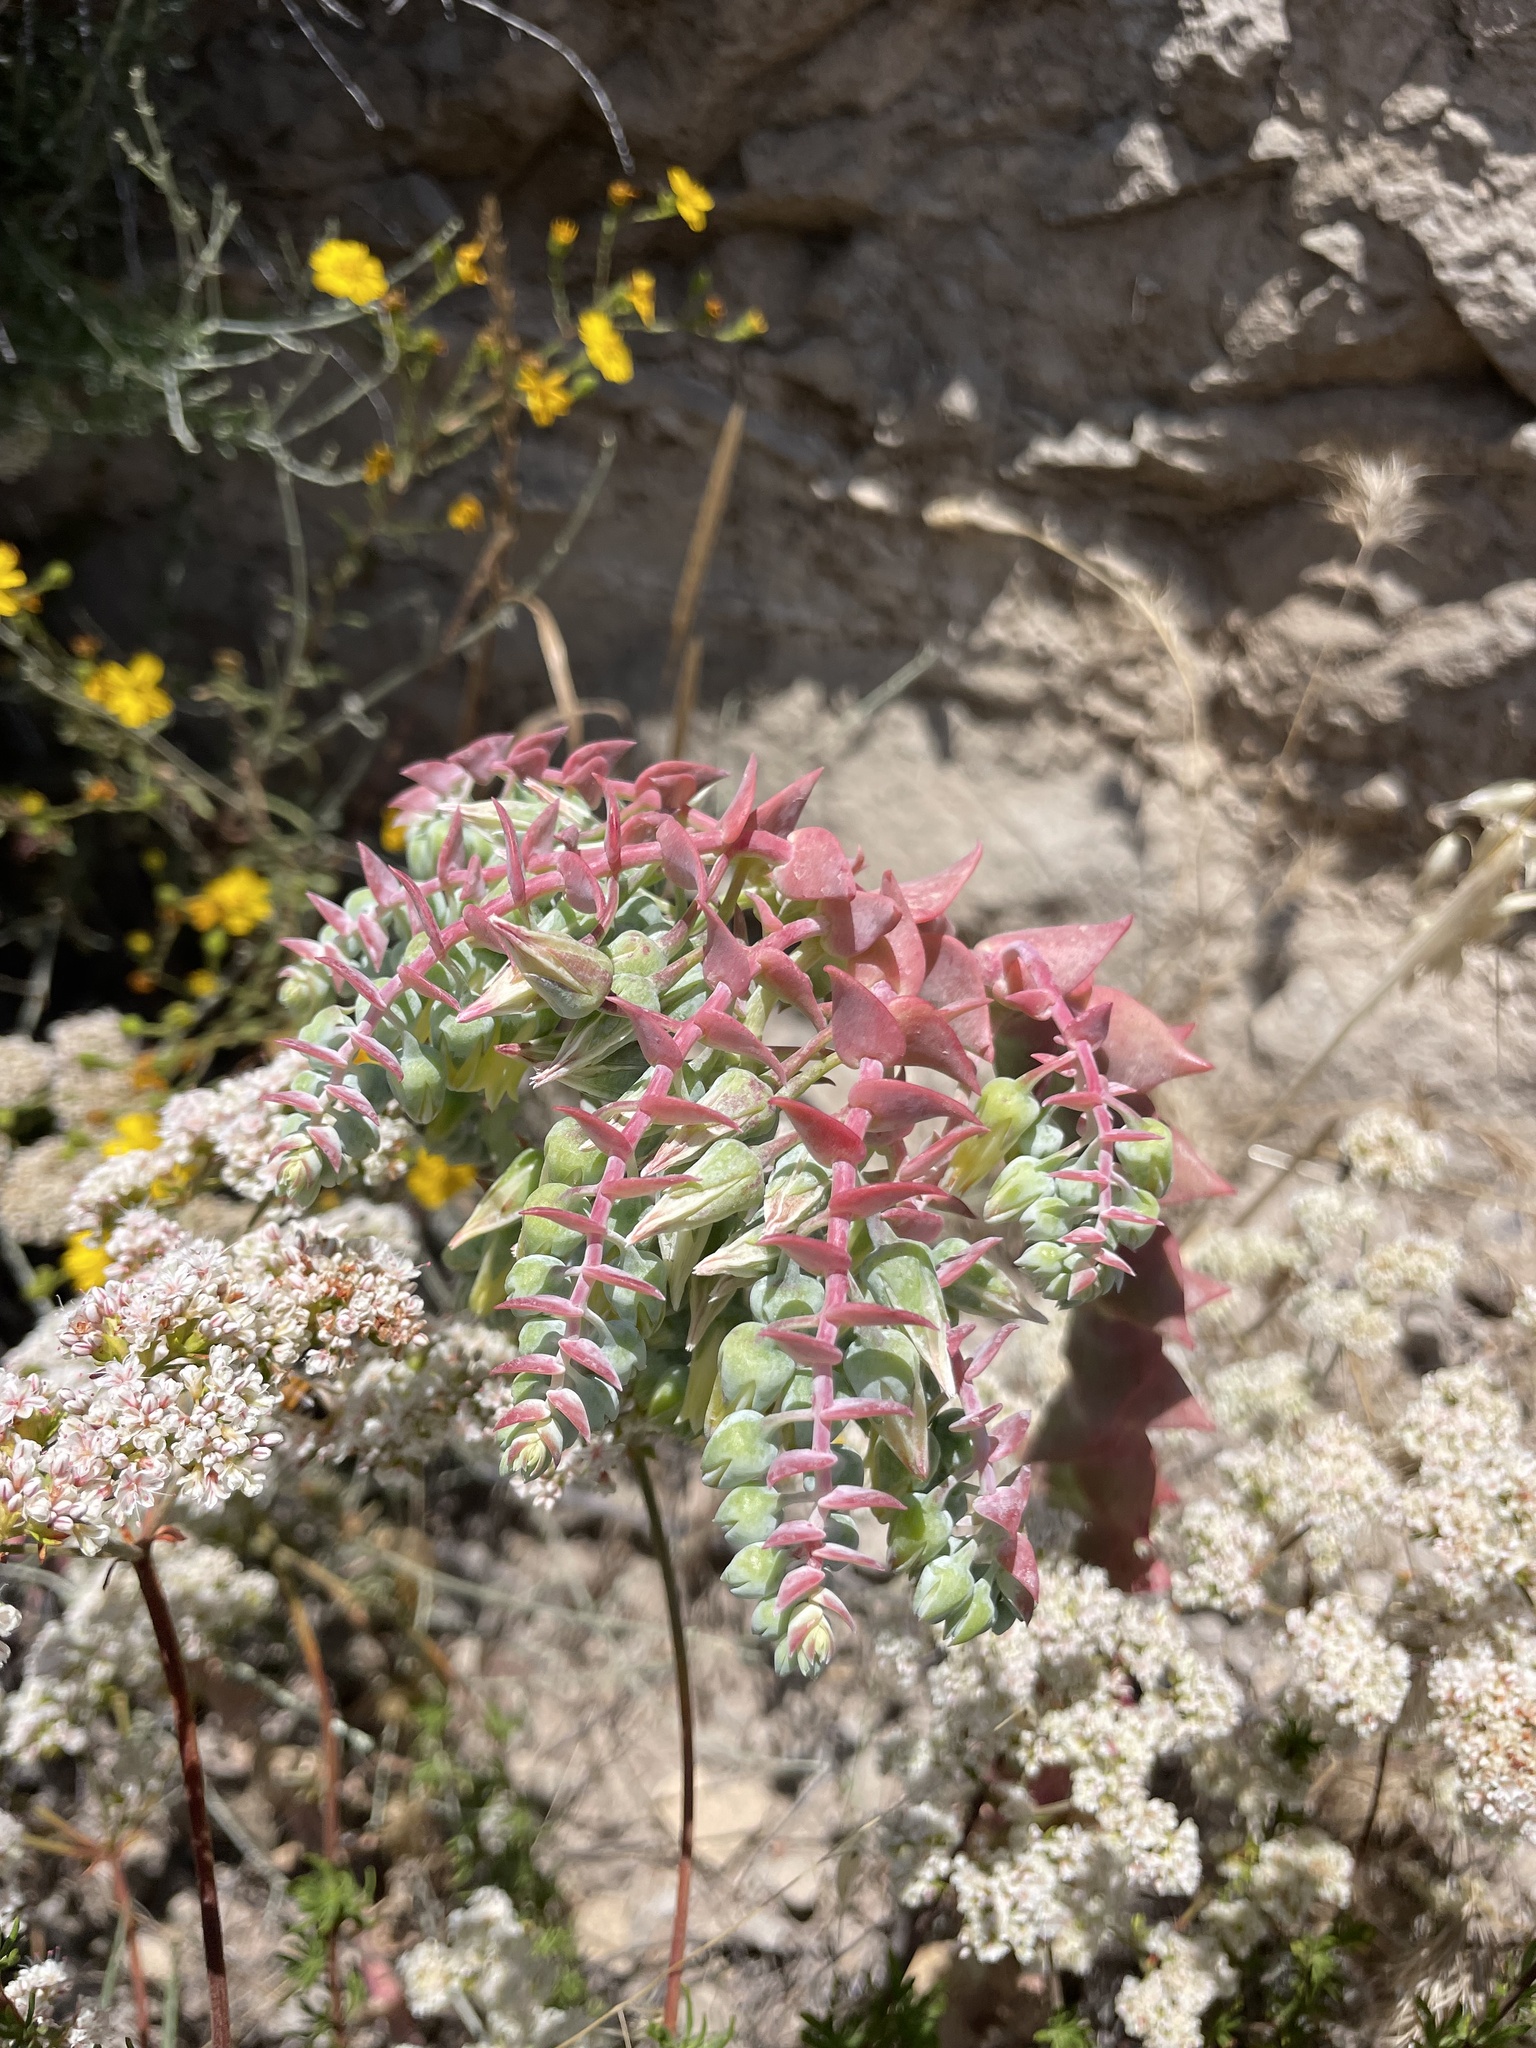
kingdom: Plantae
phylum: Tracheophyta
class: Magnoliopsida
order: Saxifragales
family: Crassulaceae
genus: Dudleya
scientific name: Dudleya
